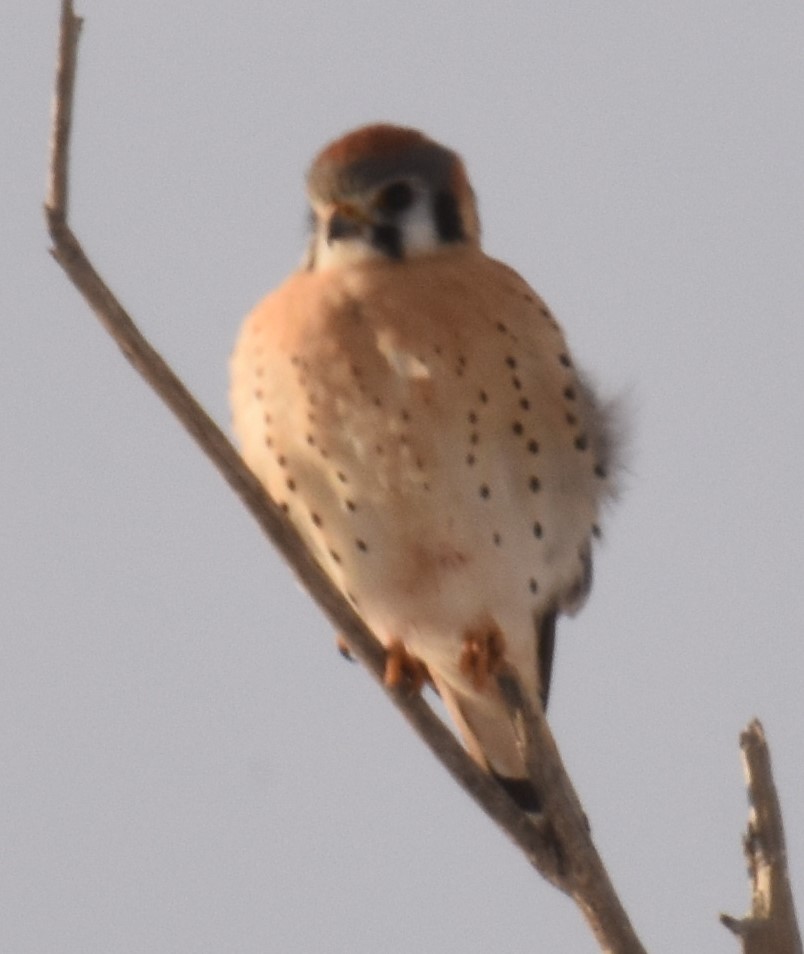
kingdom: Animalia
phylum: Chordata
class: Aves
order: Falconiformes
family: Falconidae
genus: Falco
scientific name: Falco sparverius
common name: American kestrel
